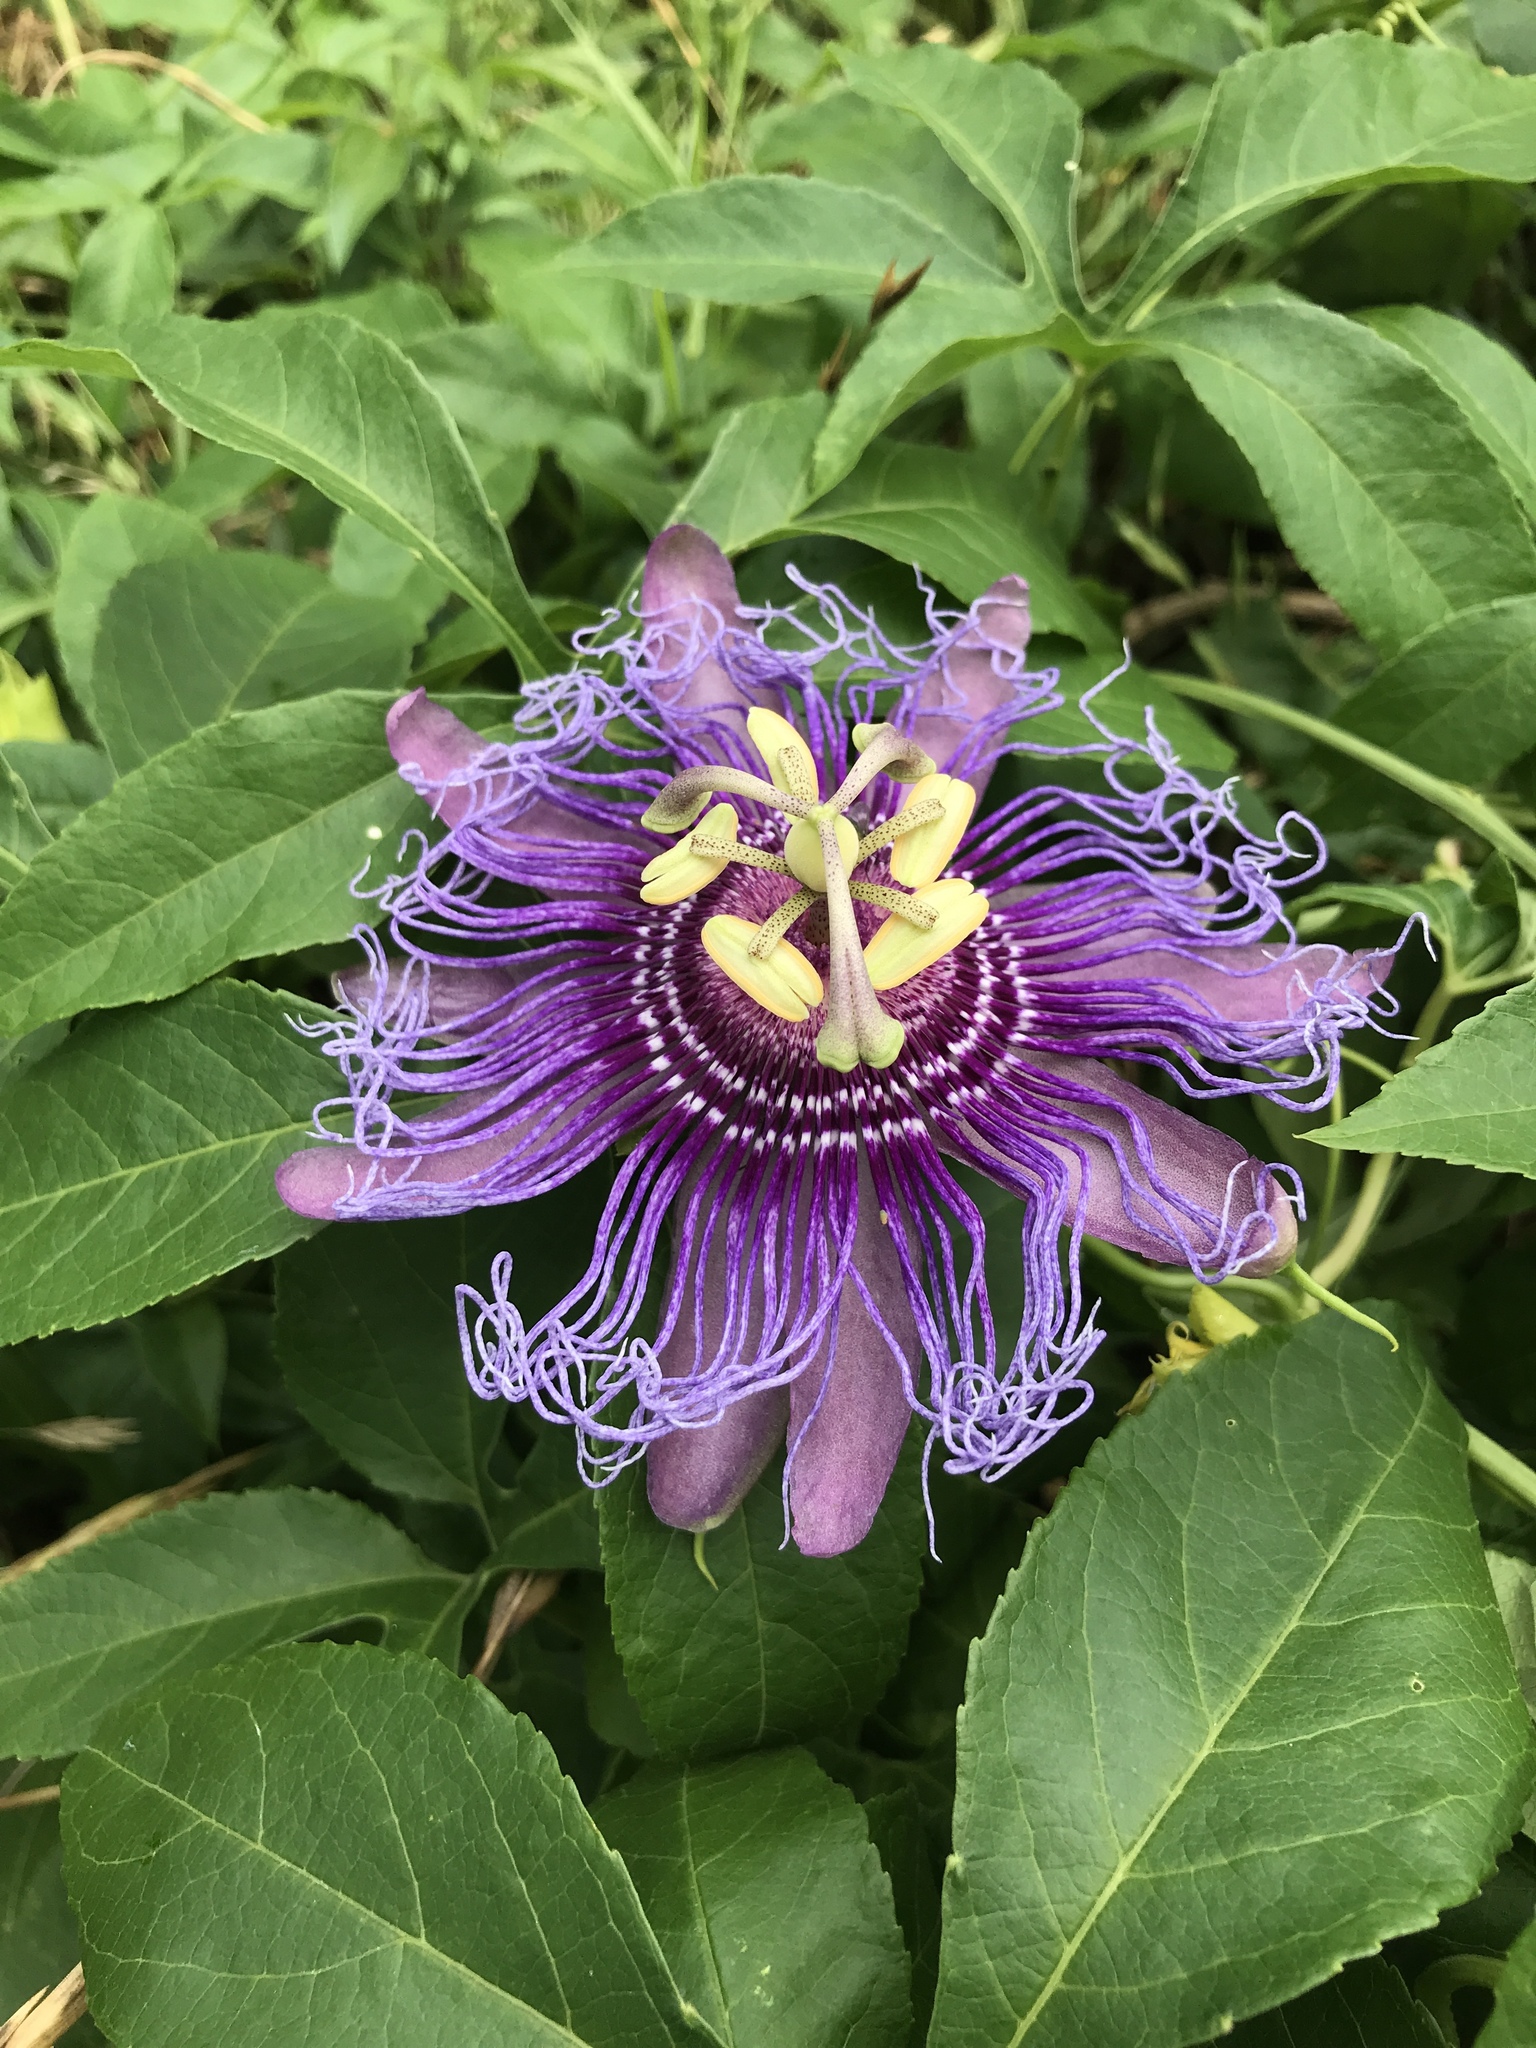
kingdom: Plantae
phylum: Tracheophyta
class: Magnoliopsida
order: Malpighiales
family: Passifloraceae
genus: Passiflora
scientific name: Passiflora
